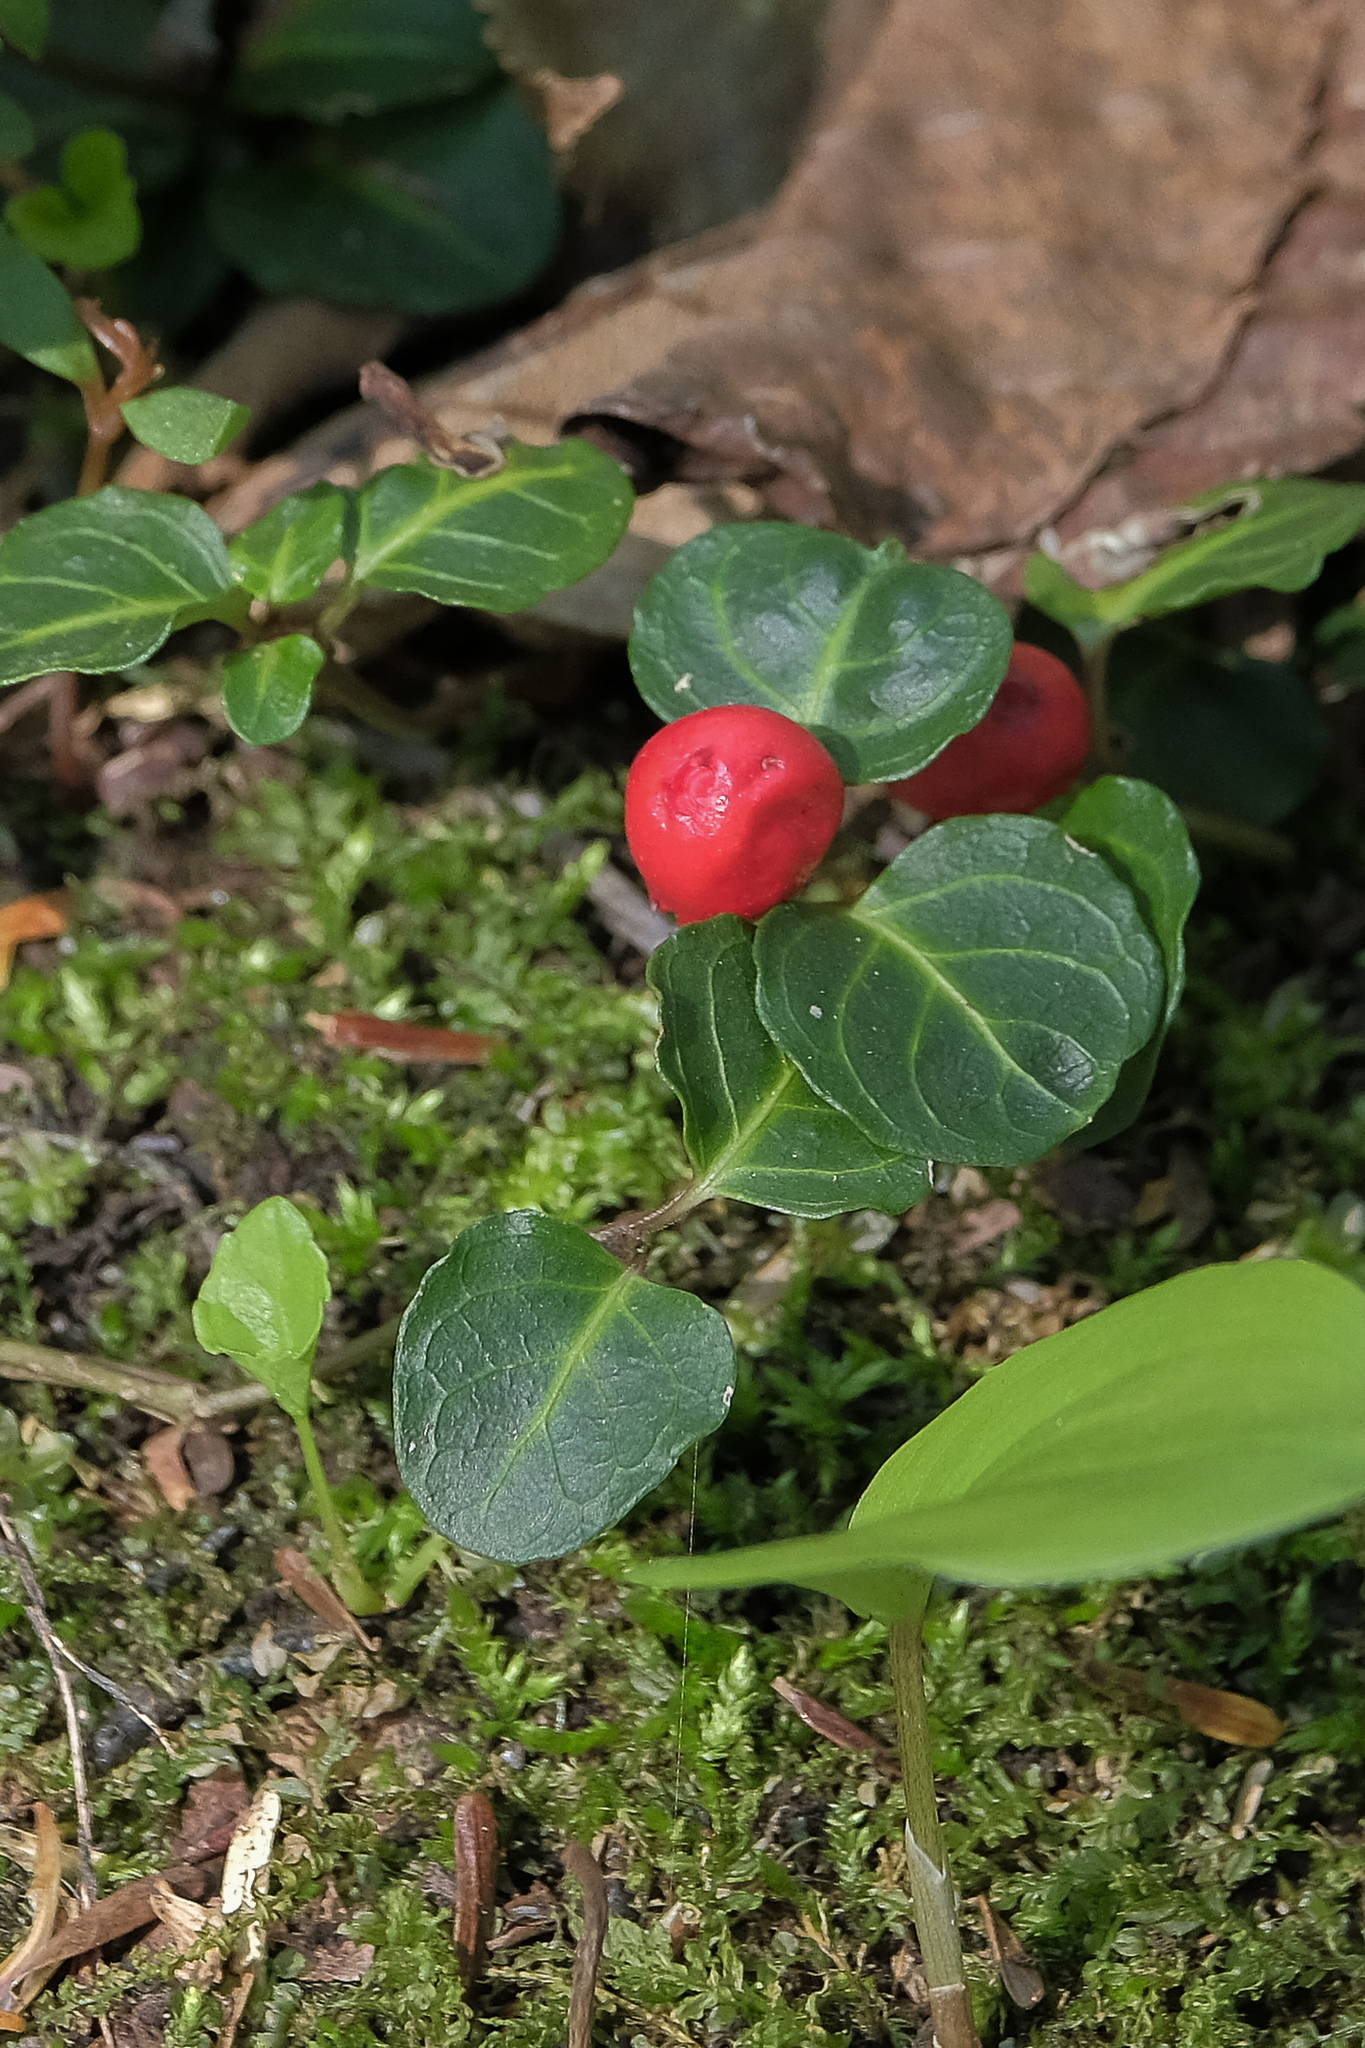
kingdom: Plantae
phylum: Tracheophyta
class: Magnoliopsida
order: Gentianales
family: Rubiaceae
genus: Mitchella
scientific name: Mitchella repens
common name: Partridge-berry
